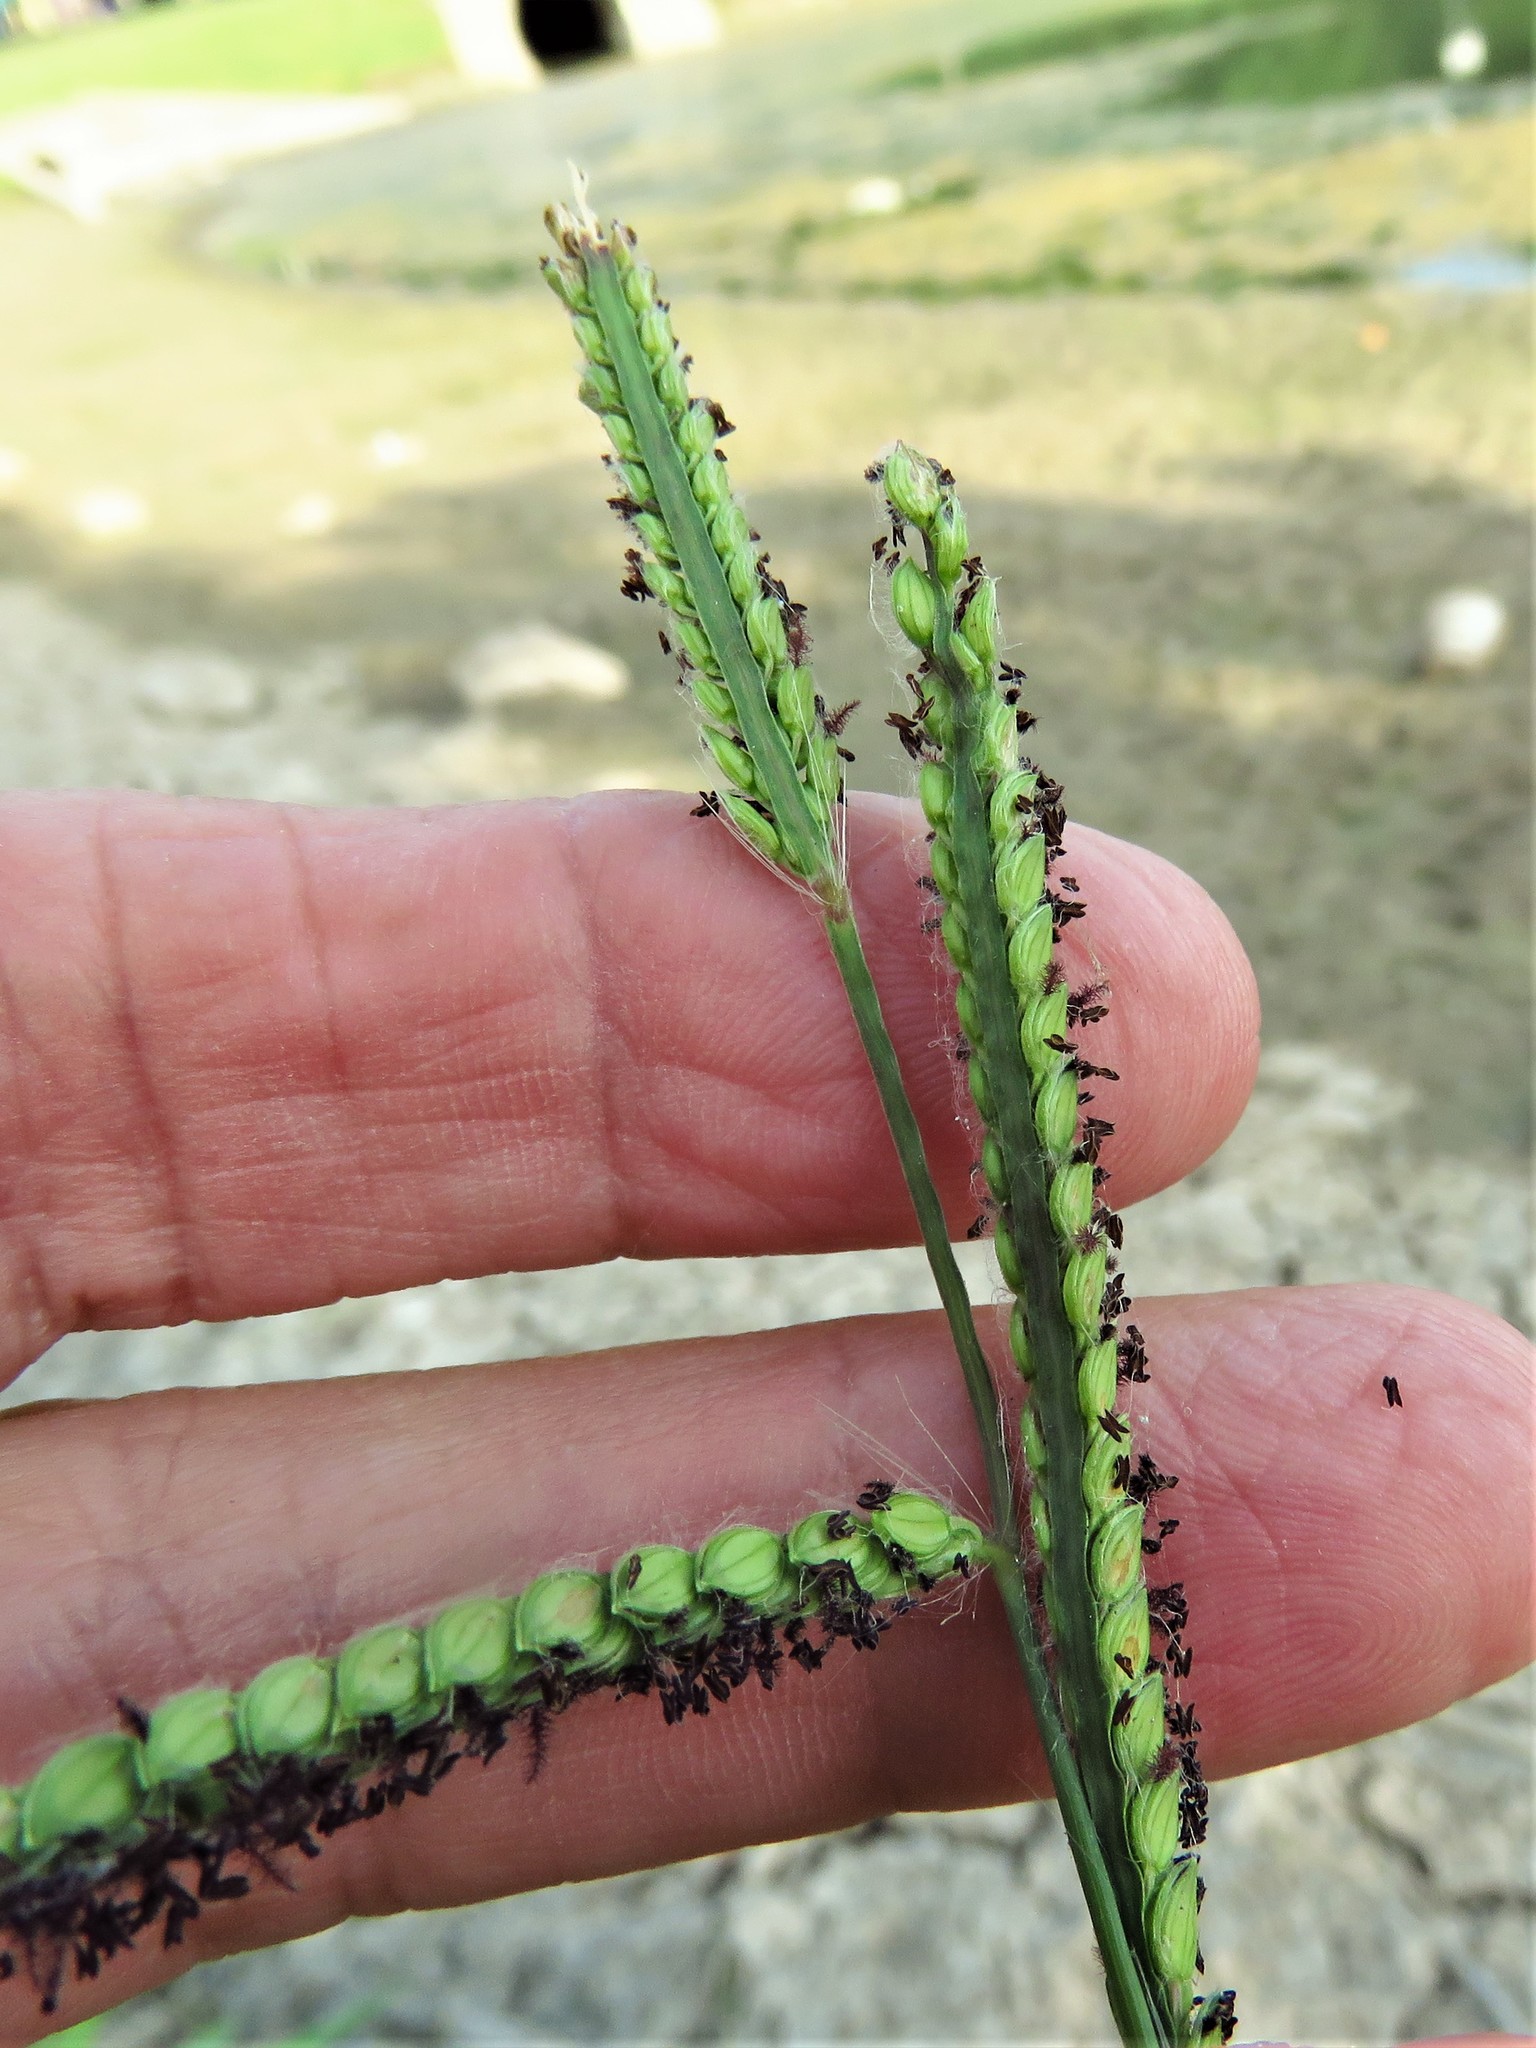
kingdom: Plantae
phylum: Tracheophyta
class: Liliopsida
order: Poales
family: Poaceae
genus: Paspalum
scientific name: Paspalum dilatatum
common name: Dallisgrass
